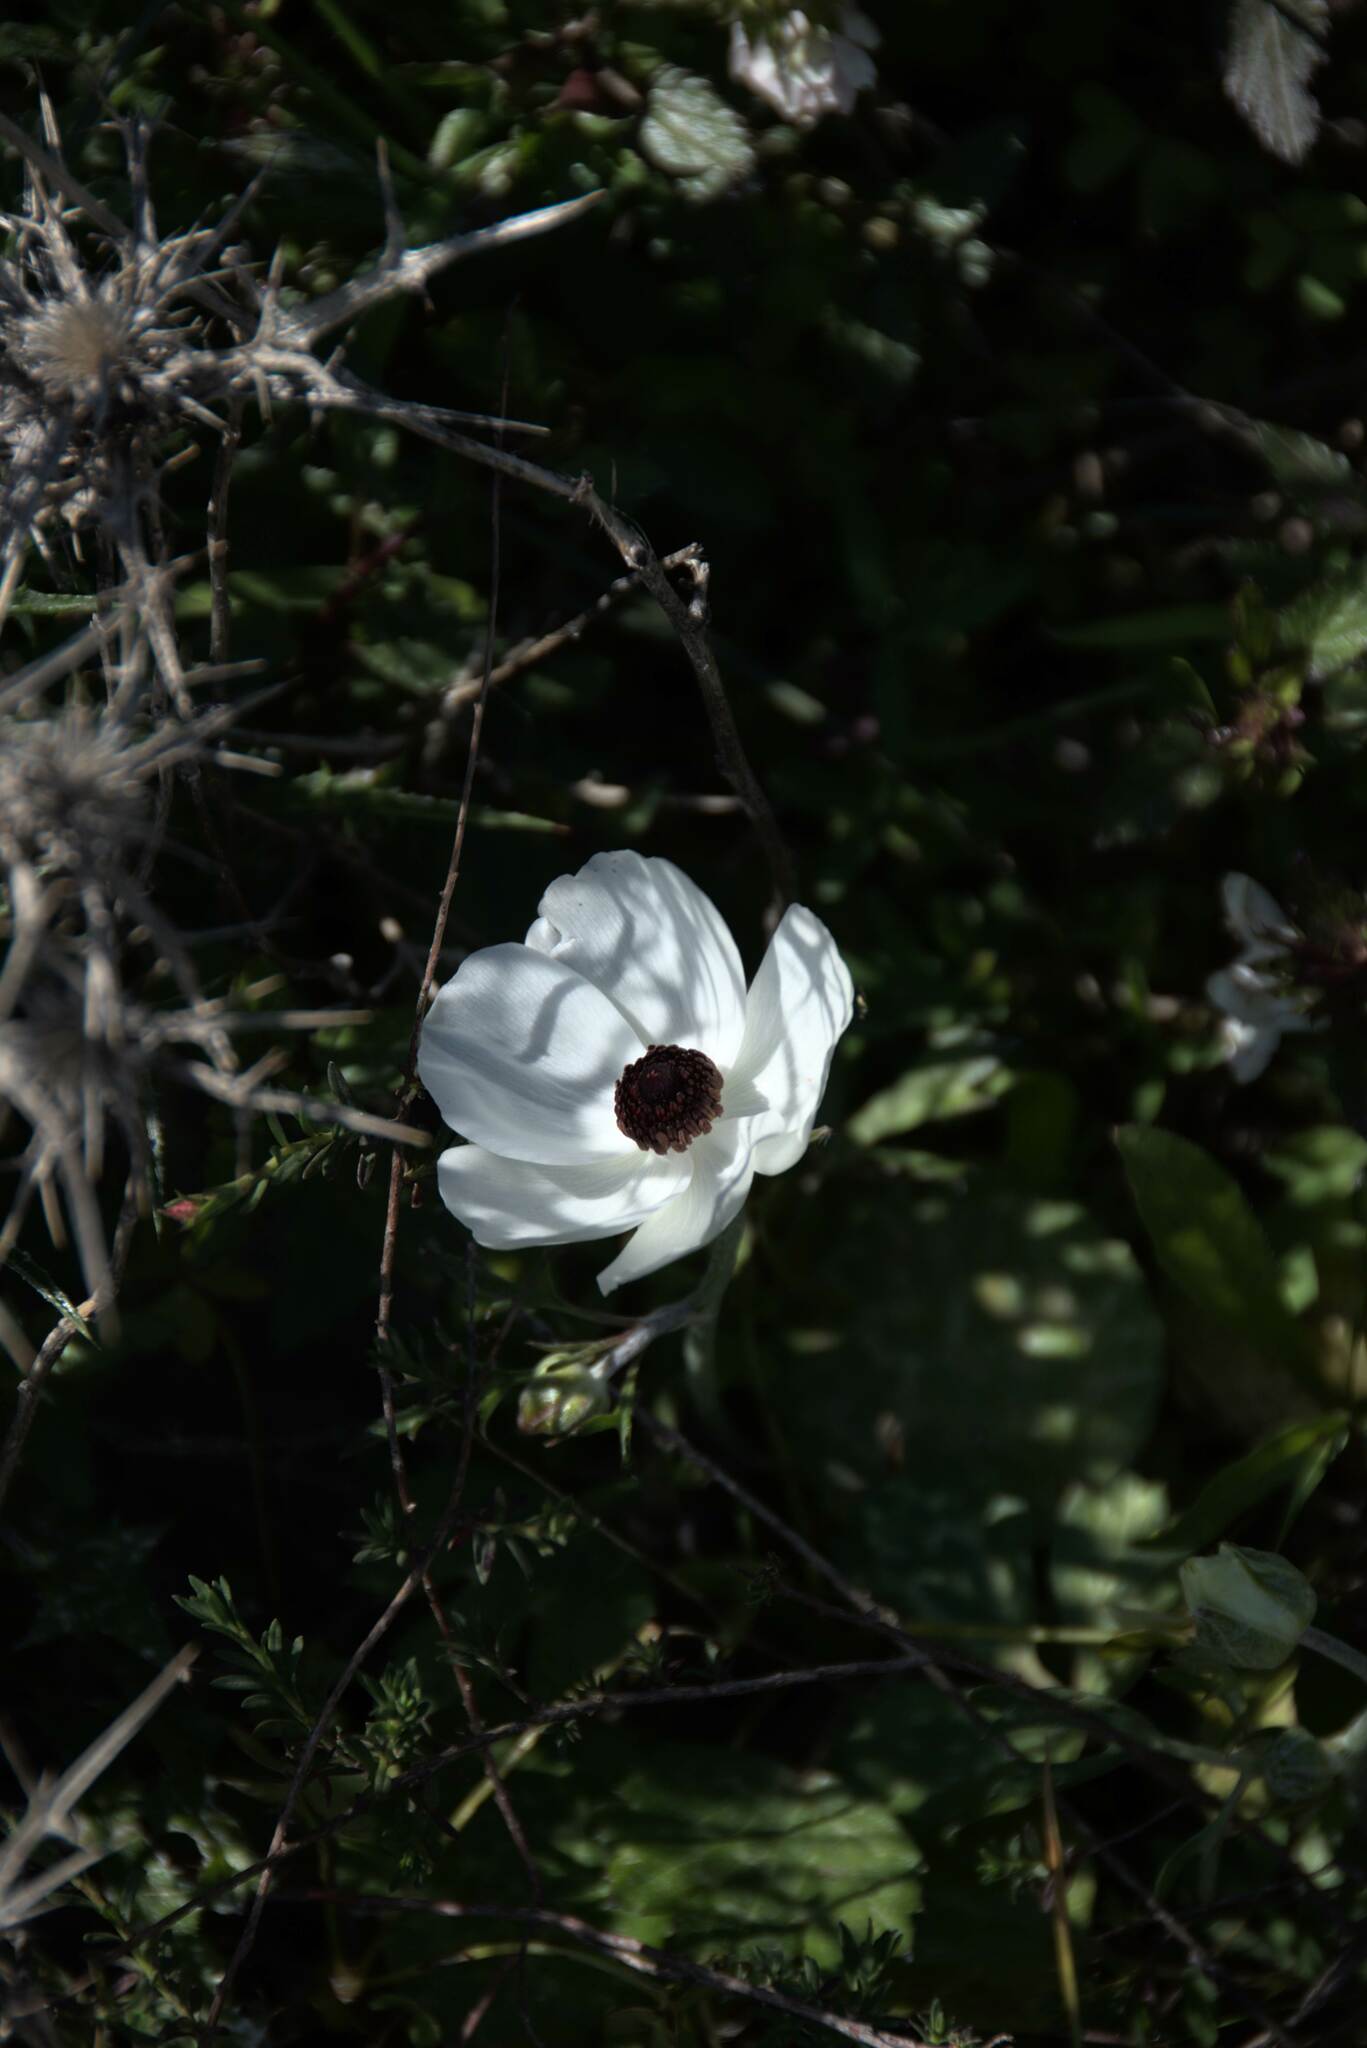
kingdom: Plantae
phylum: Tracheophyta
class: Magnoliopsida
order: Ranunculales
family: Ranunculaceae
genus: Ranunculus
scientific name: Ranunculus asiaticus
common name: Persian buttercup
